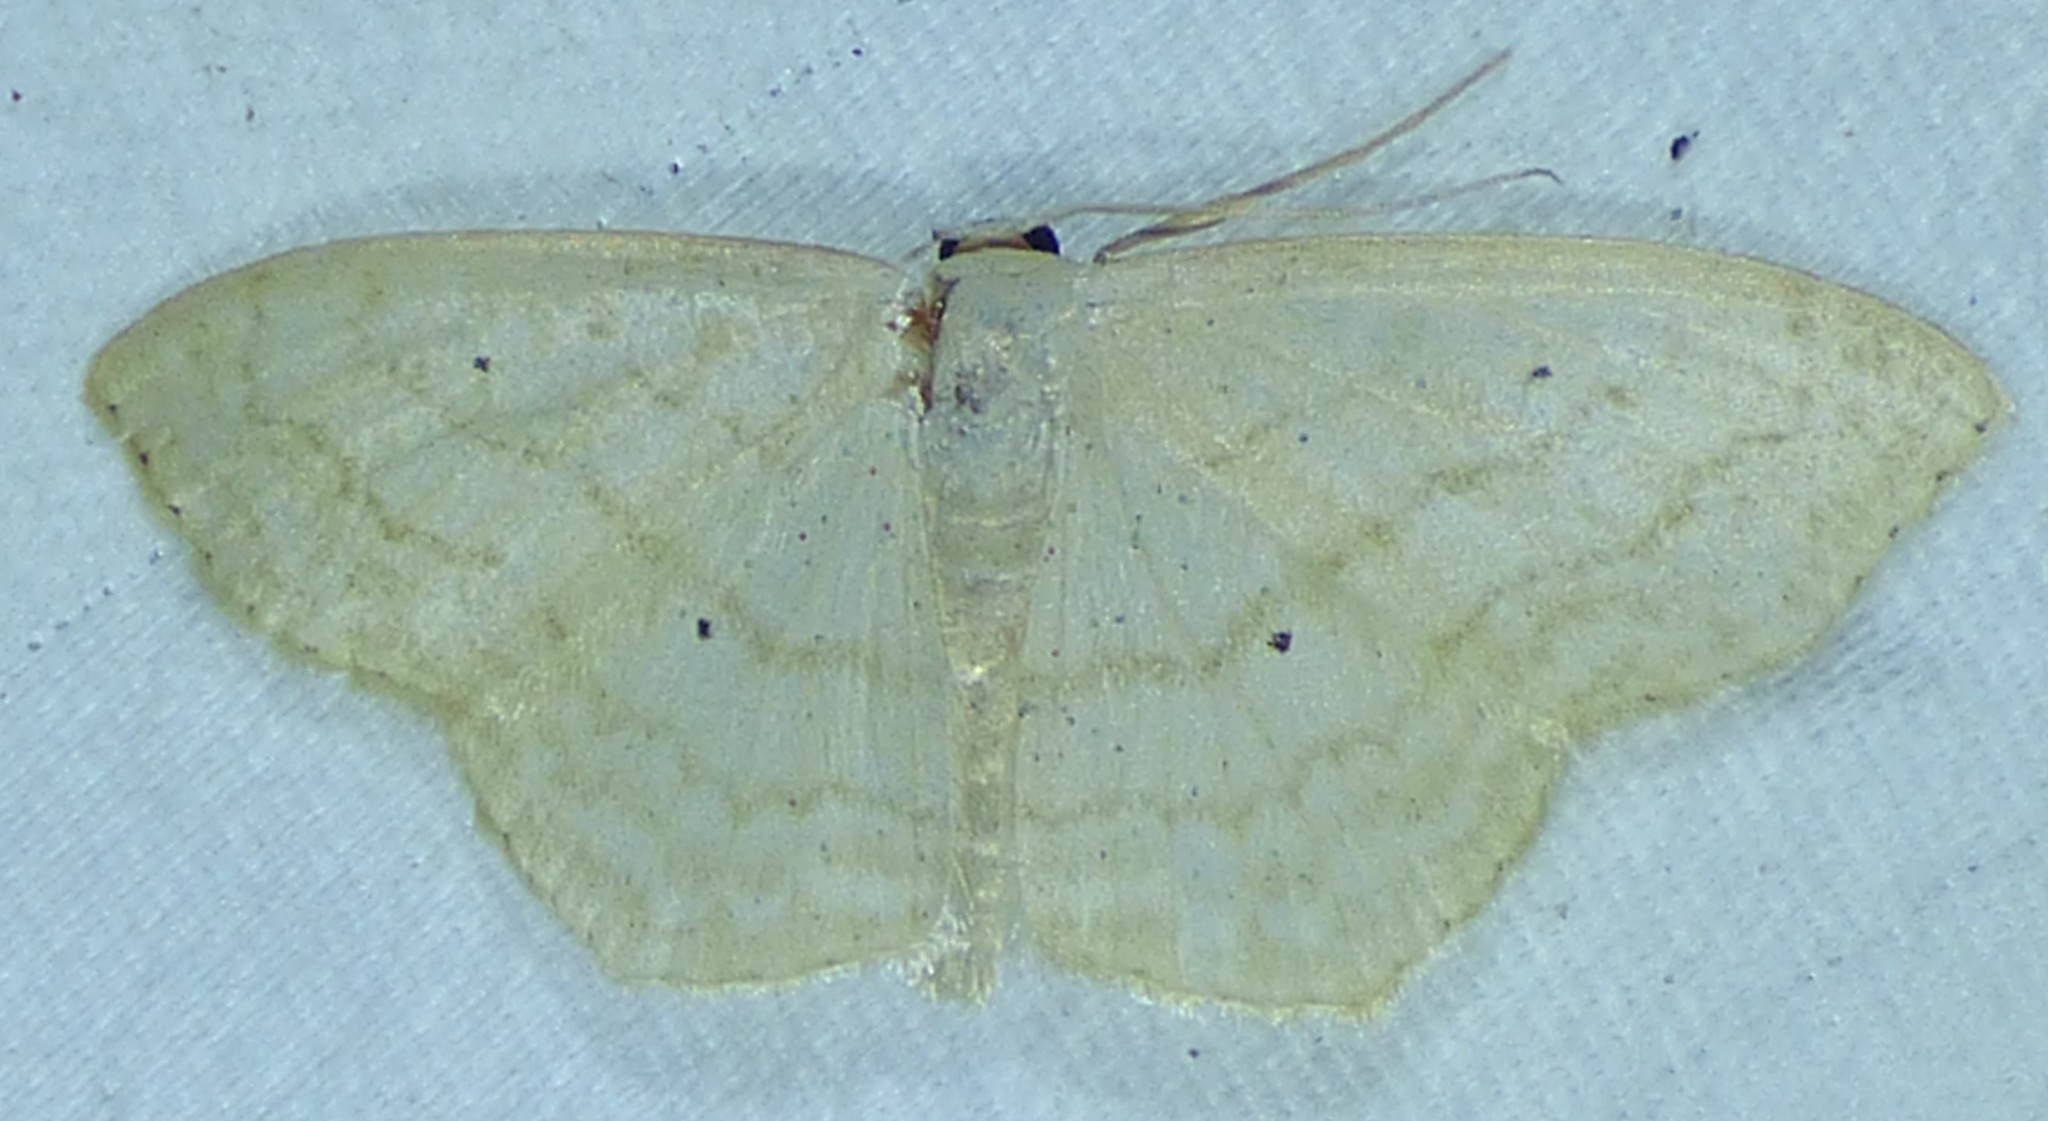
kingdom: Animalia
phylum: Arthropoda
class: Insecta
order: Lepidoptera
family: Geometridae
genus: Scopula
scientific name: Scopula limboundata
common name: Large lace border
